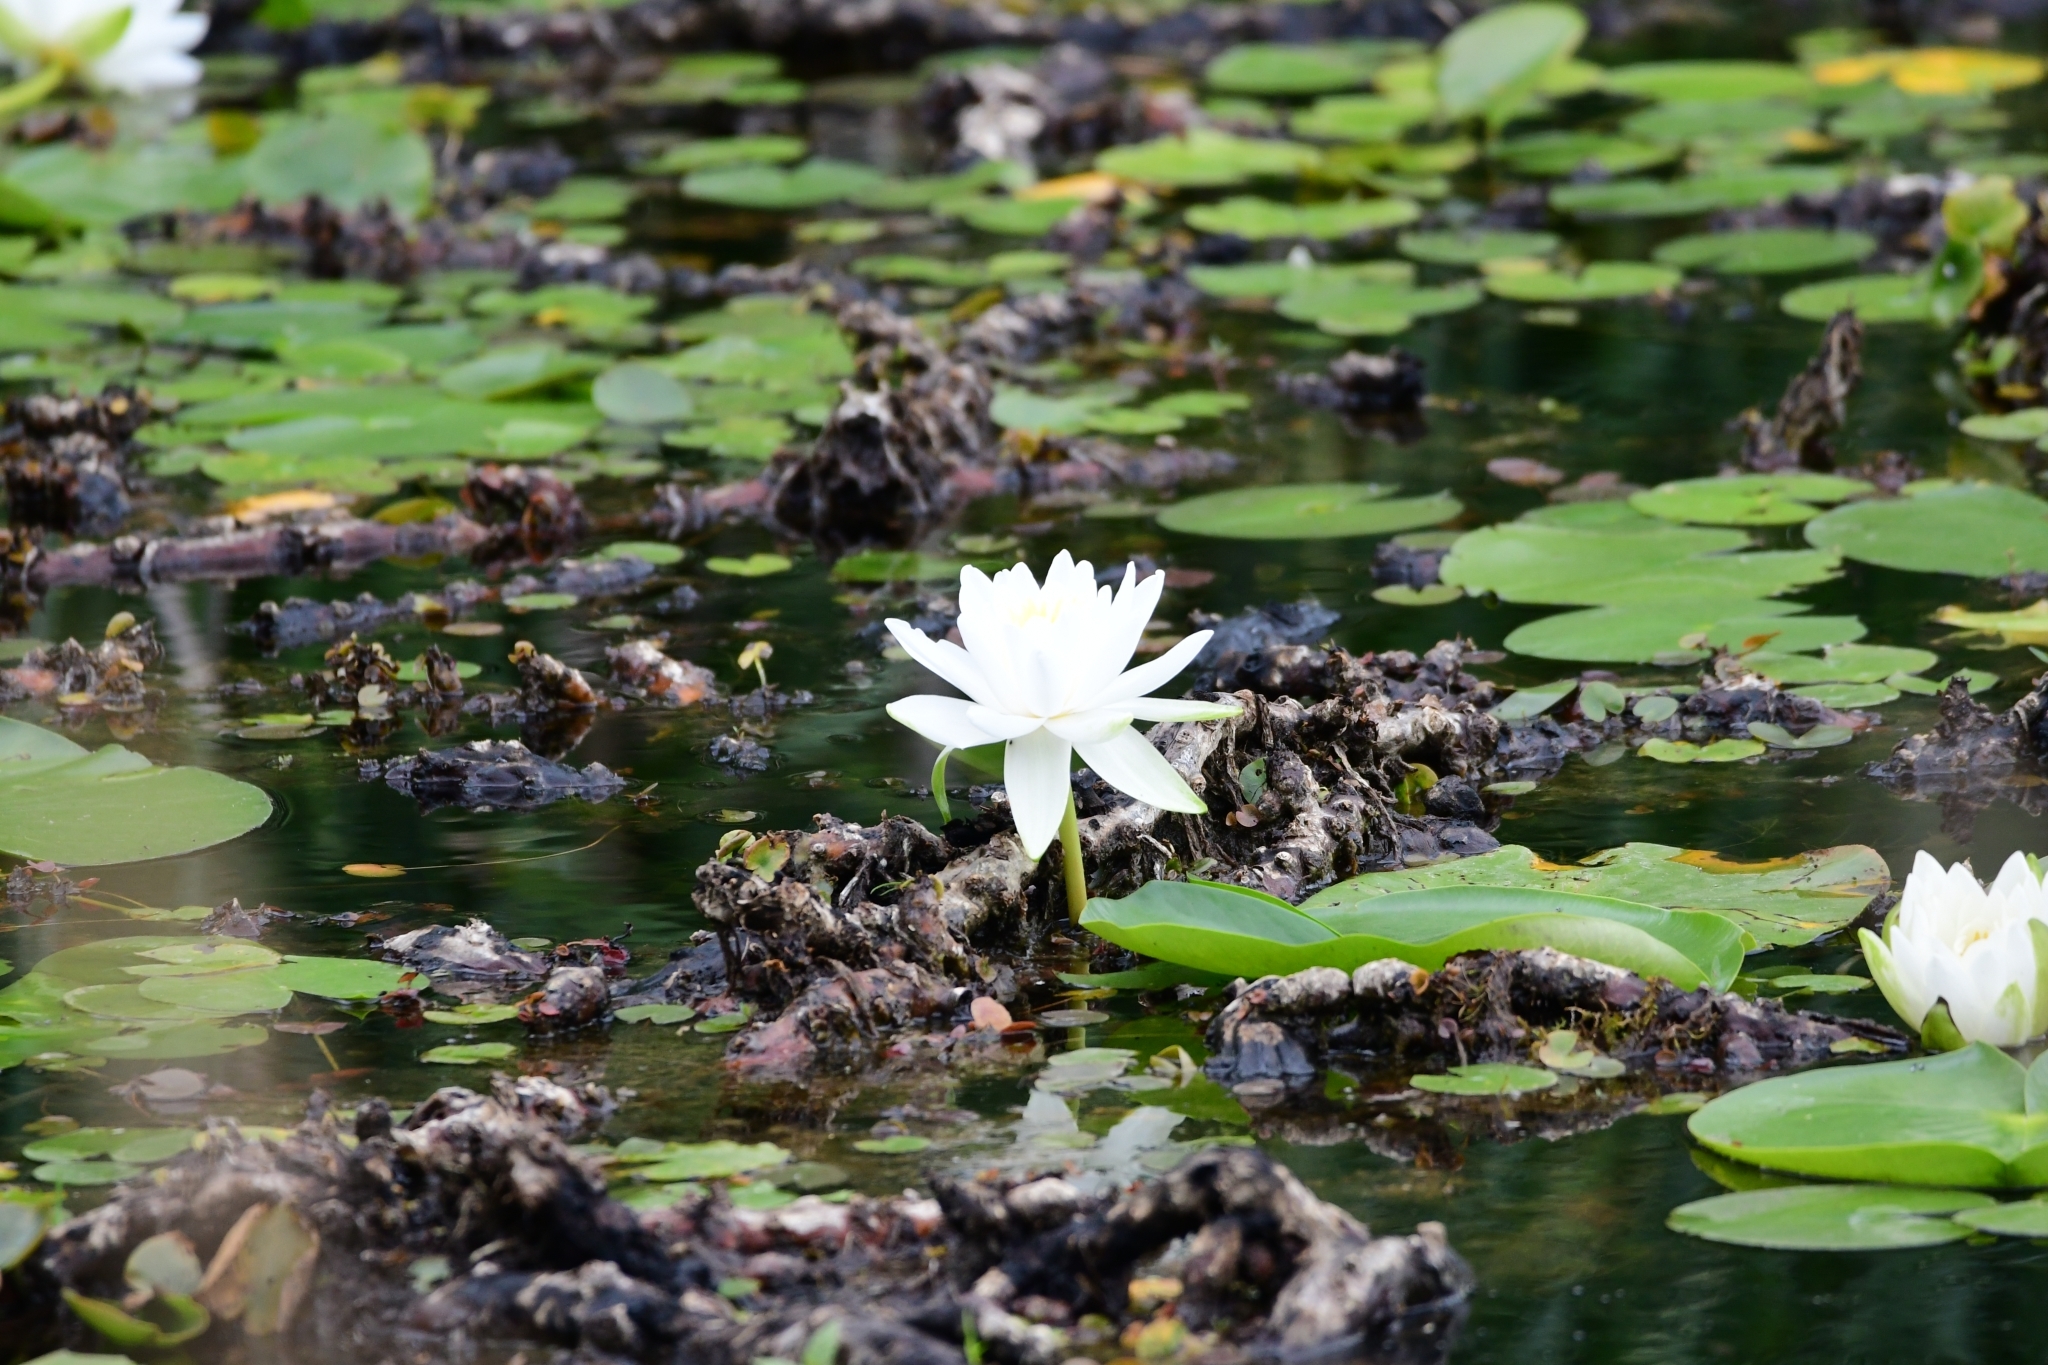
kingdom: Plantae
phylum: Tracheophyta
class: Magnoliopsida
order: Nymphaeales
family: Nymphaeaceae
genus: Nymphaea
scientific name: Nymphaea odorata
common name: Fragrant water-lily
